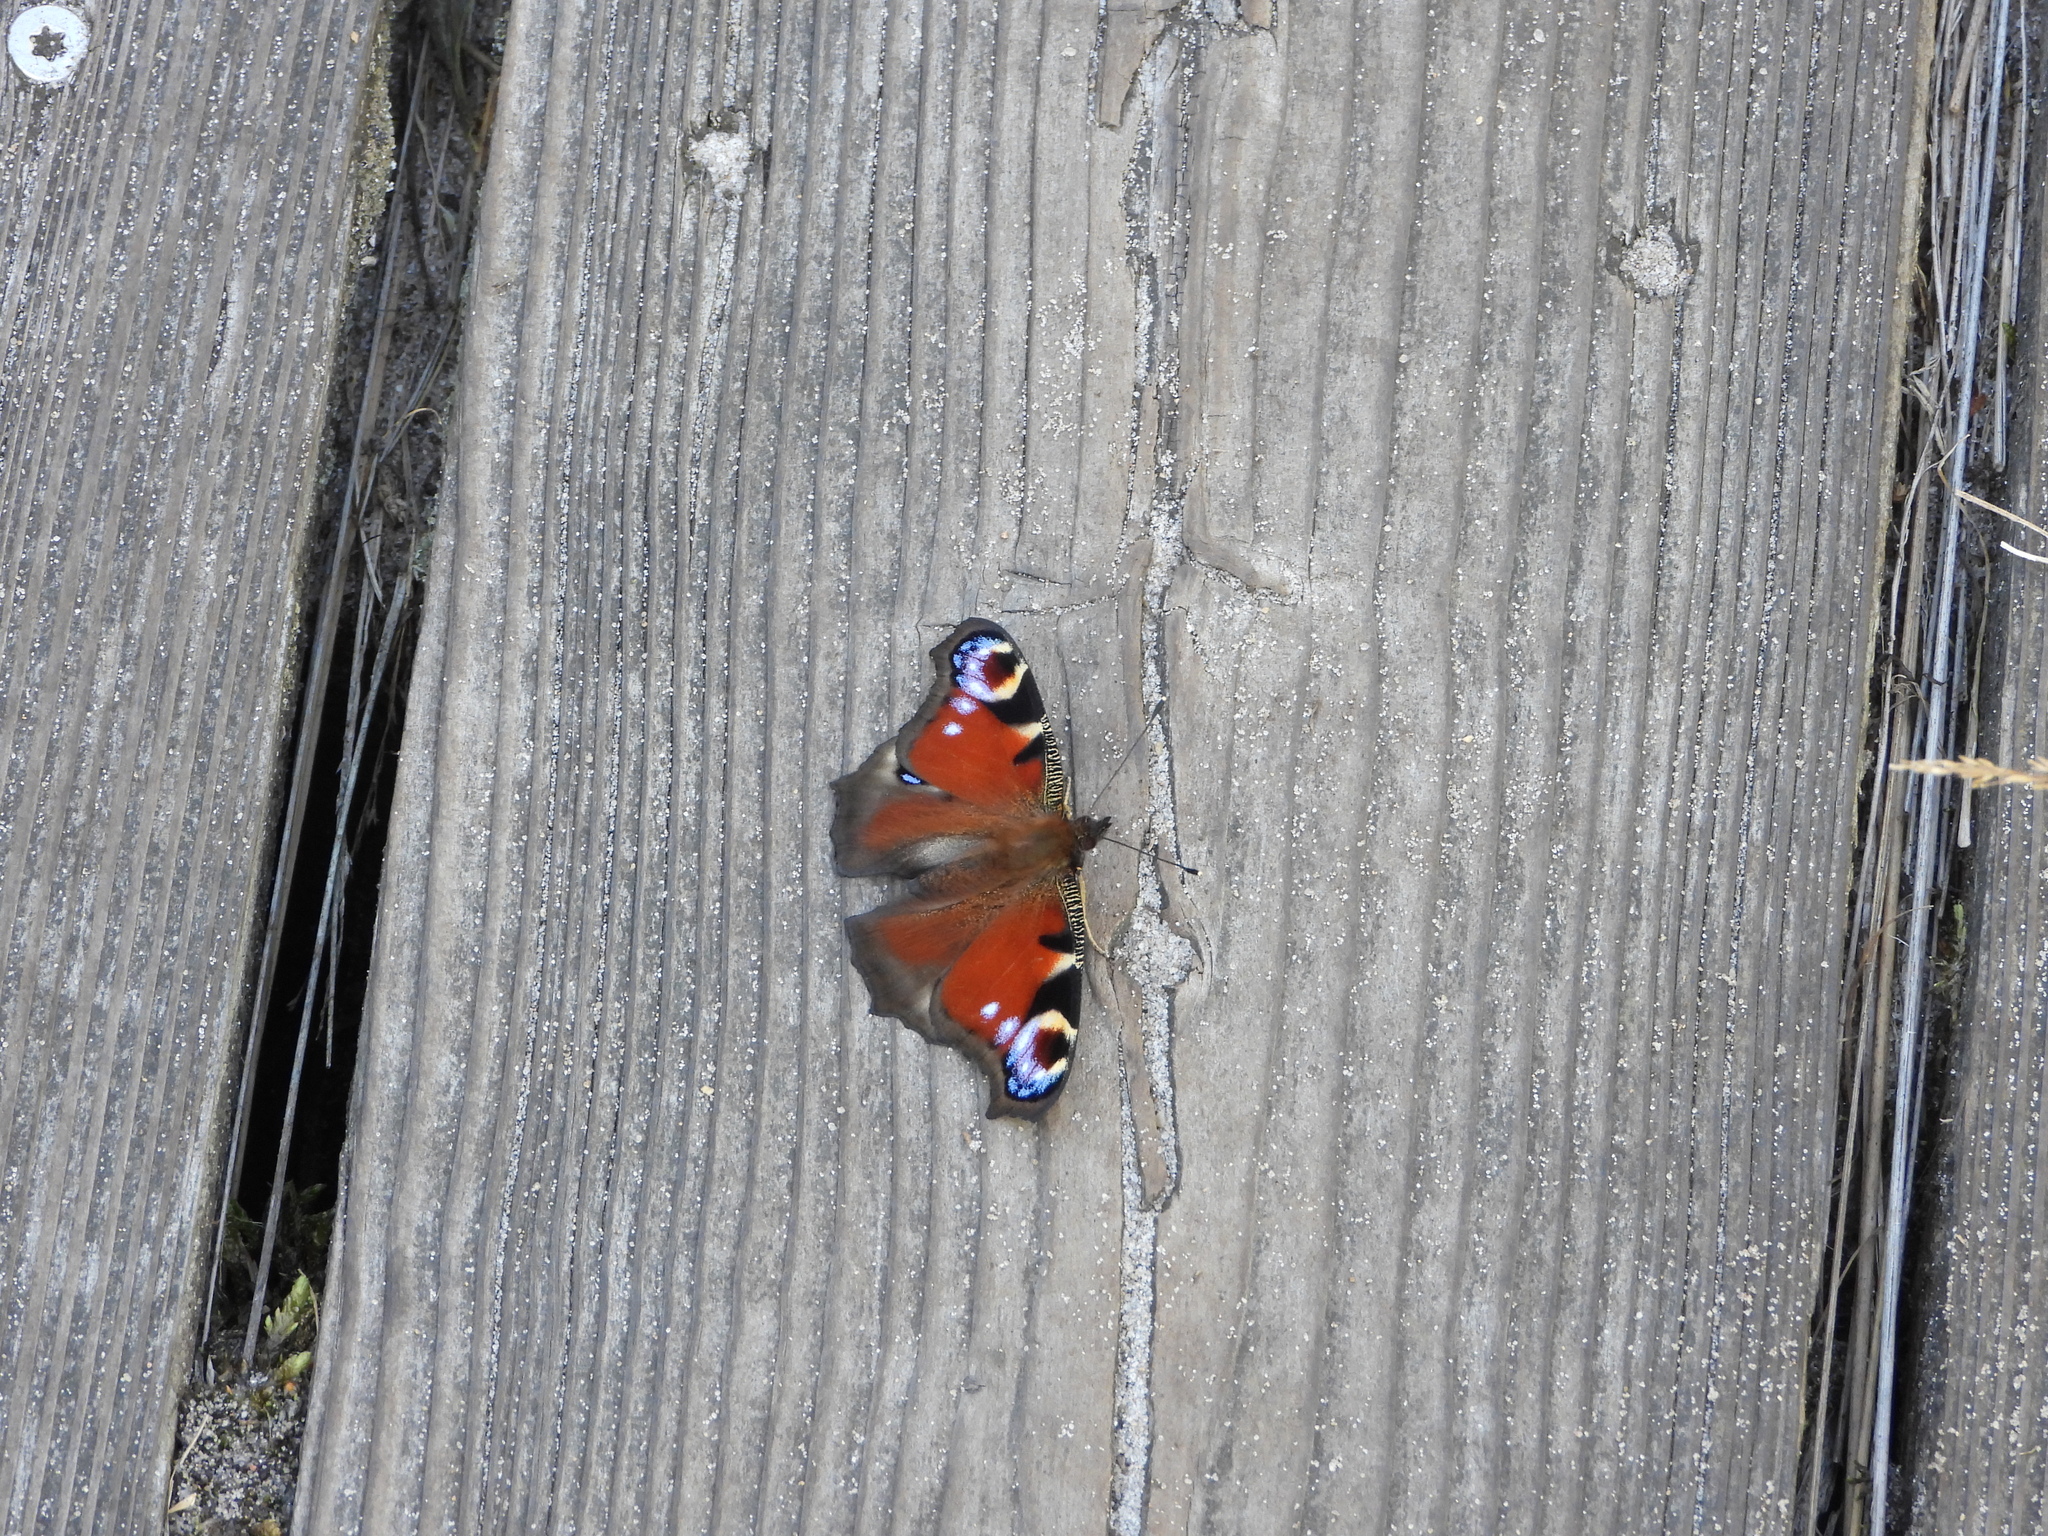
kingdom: Animalia
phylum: Arthropoda
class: Insecta
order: Lepidoptera
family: Nymphalidae
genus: Aglais
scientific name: Aglais io
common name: Peacock
